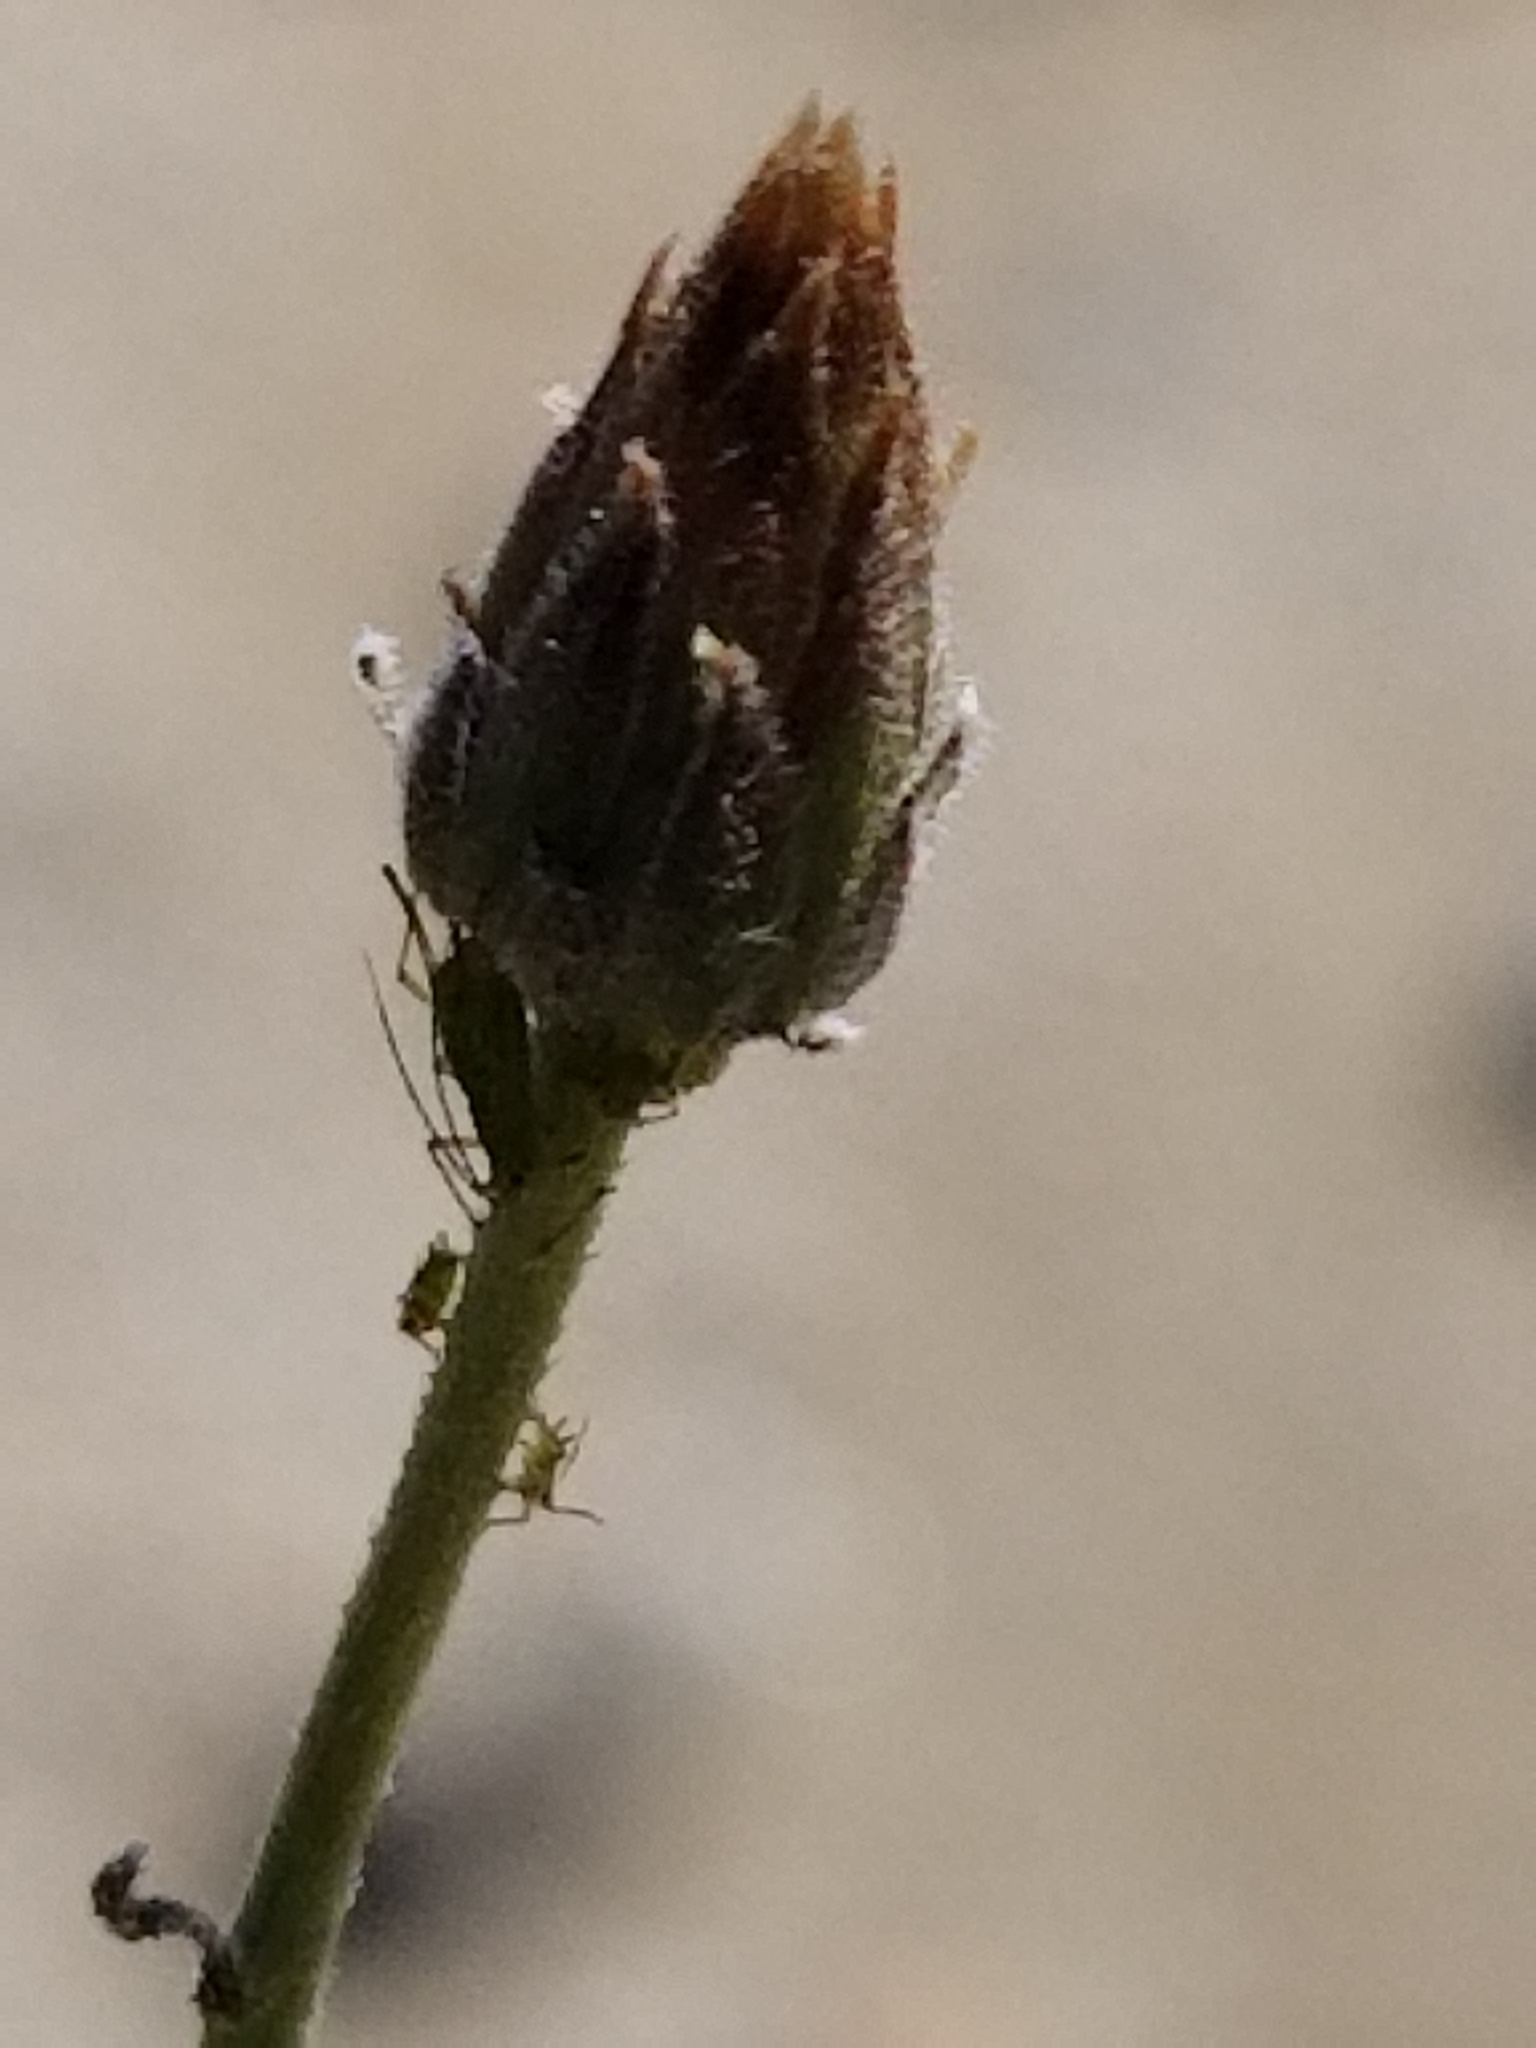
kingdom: Plantae
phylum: Tracheophyta
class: Magnoliopsida
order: Asterales
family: Asteraceae
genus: Bebbia
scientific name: Bebbia juncea
